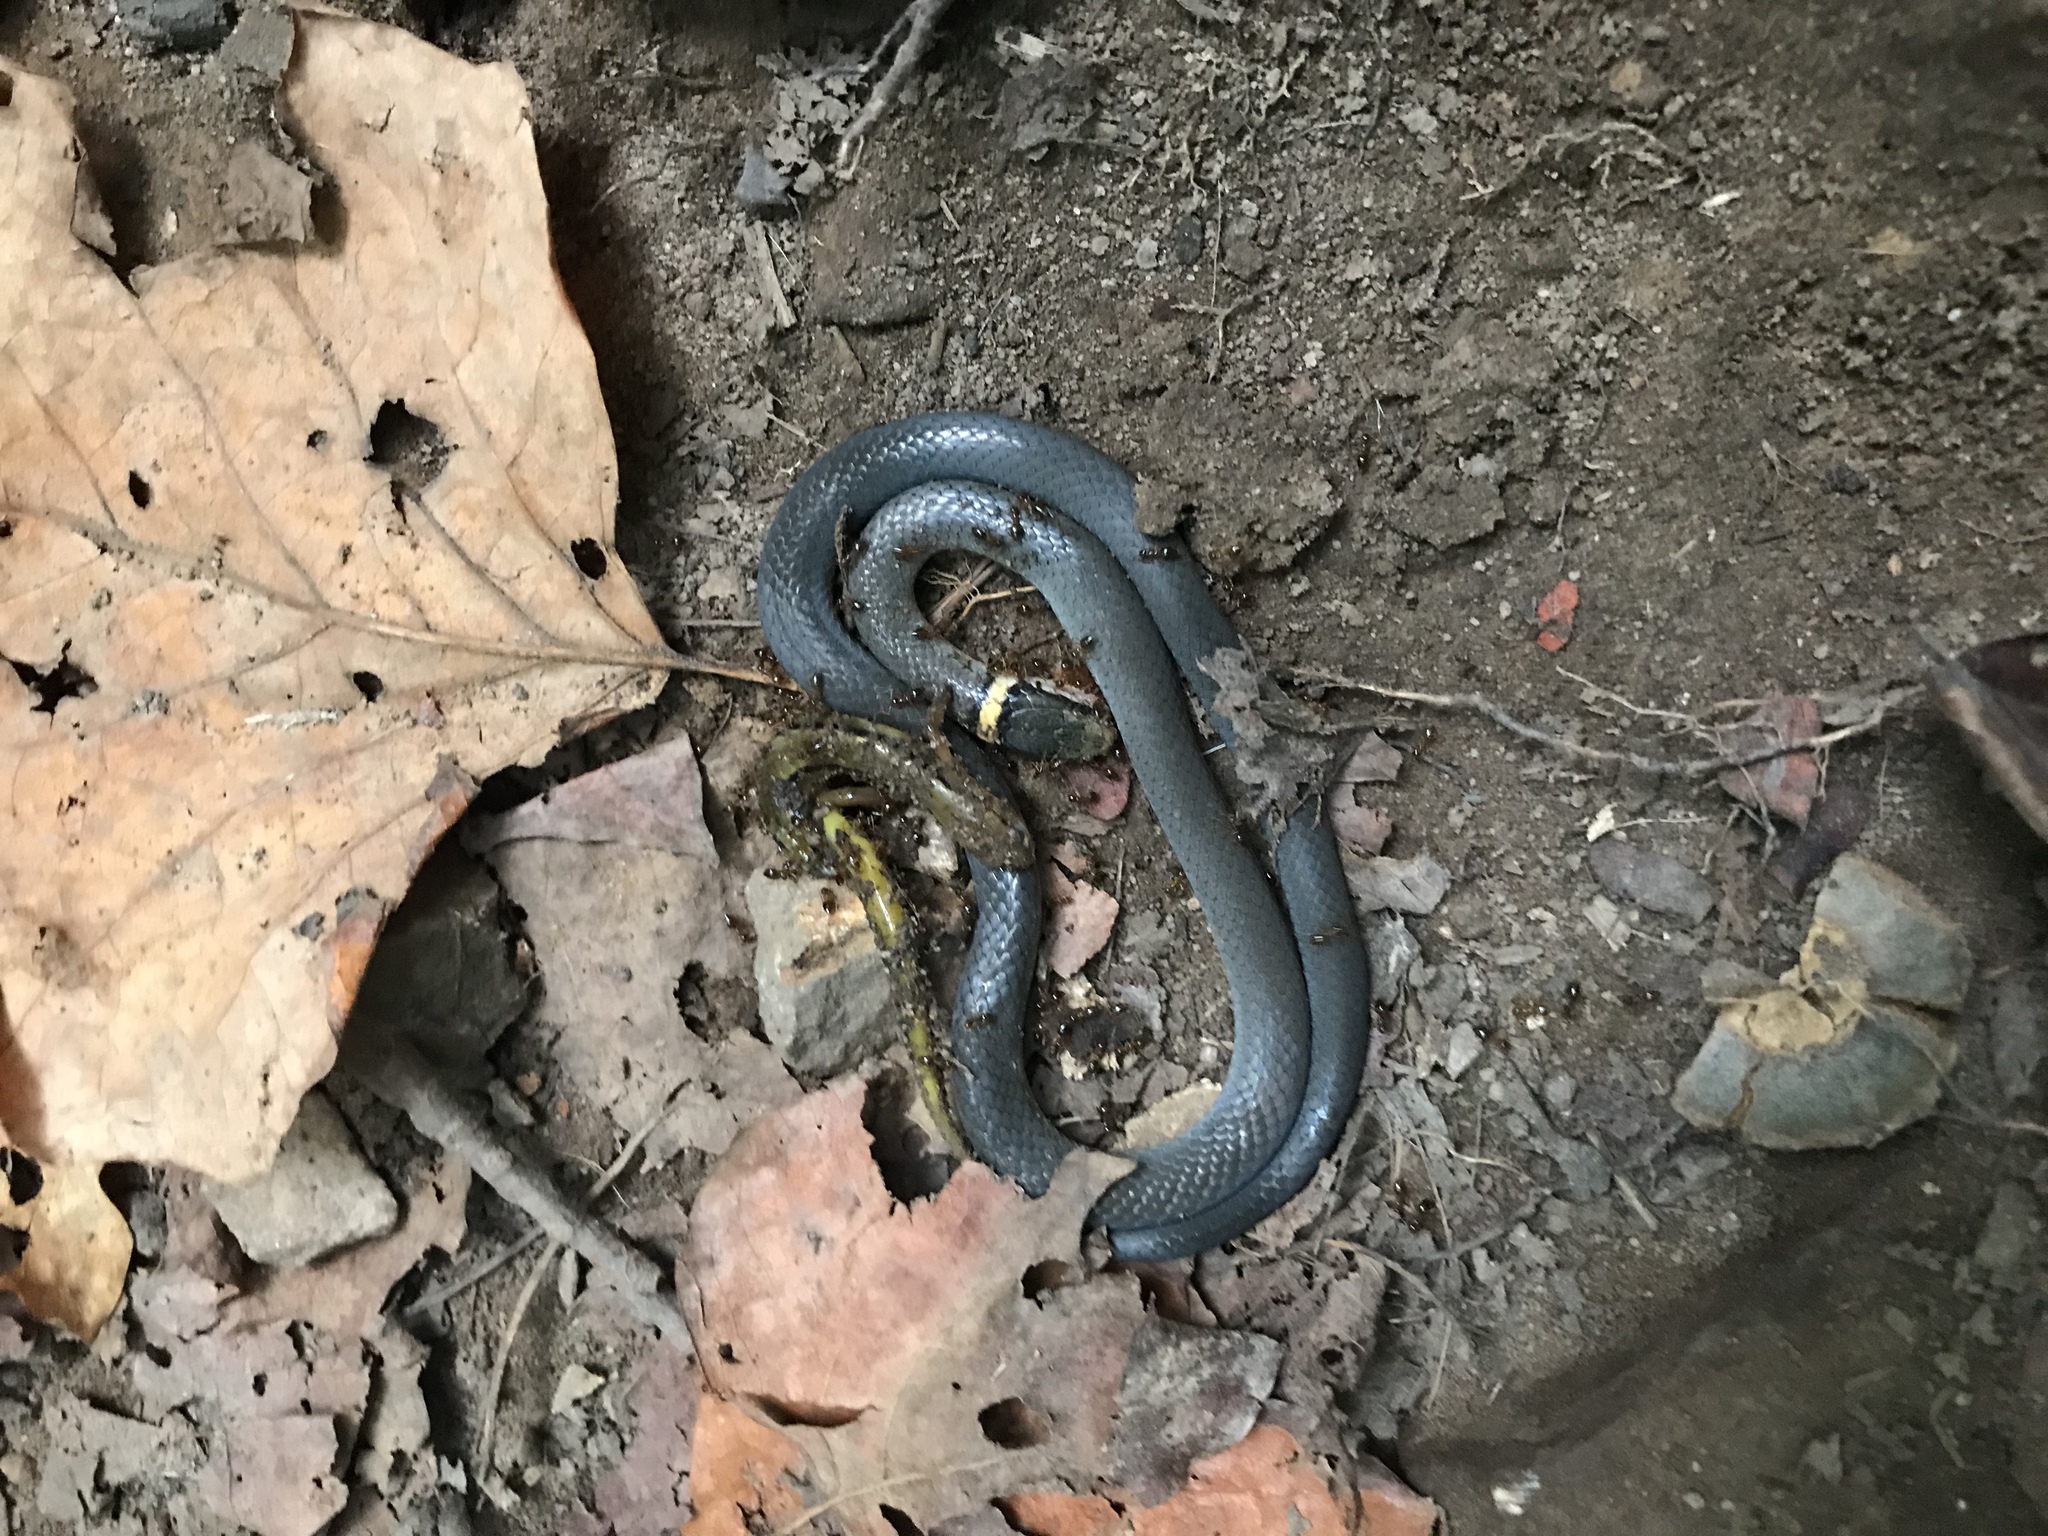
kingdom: Animalia
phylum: Chordata
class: Squamata
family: Colubridae
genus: Diadophis
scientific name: Diadophis punctatus
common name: Ringneck snake
